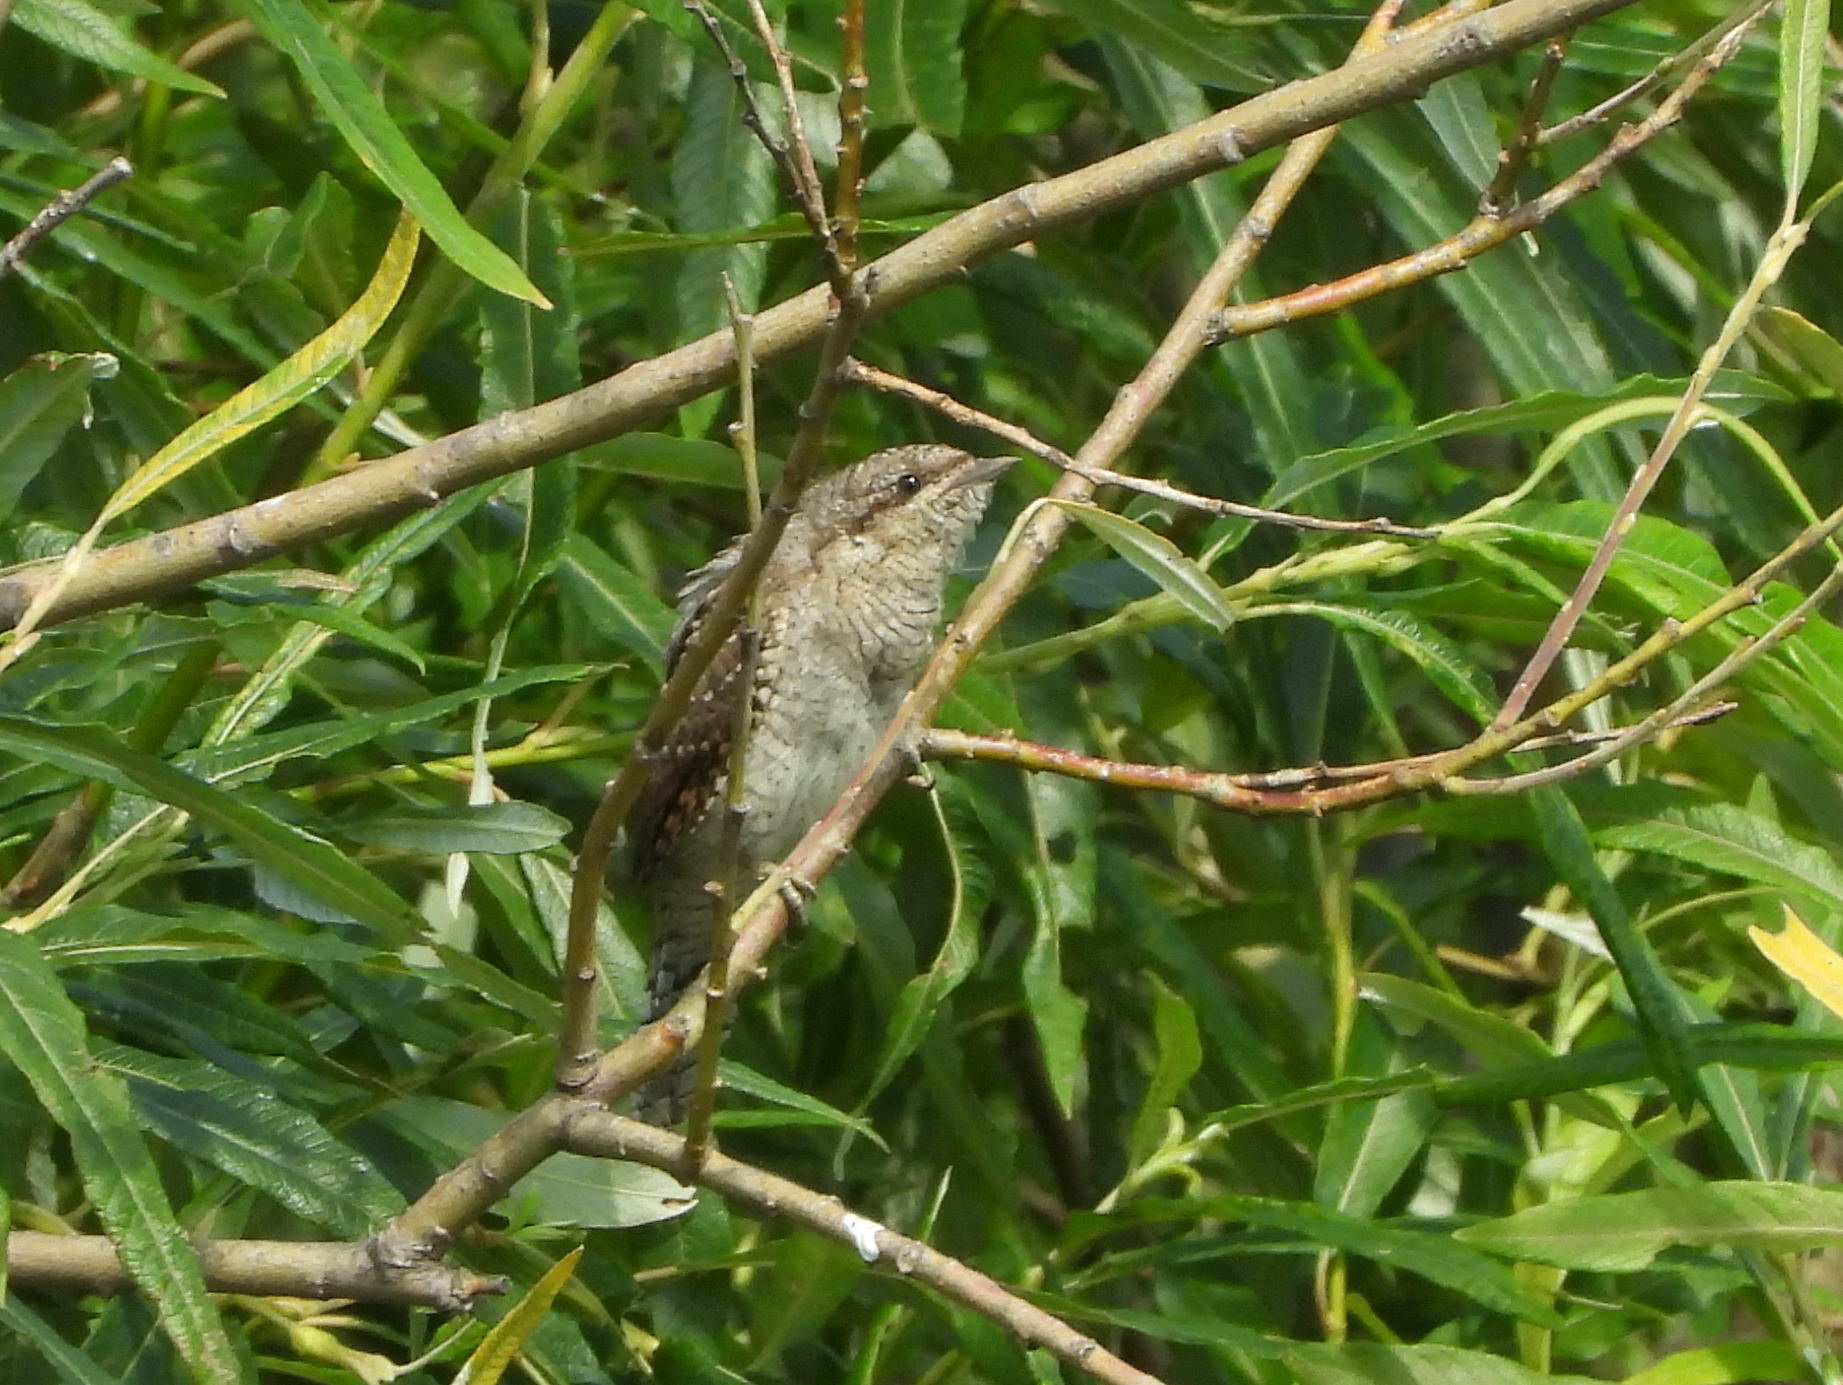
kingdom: Animalia
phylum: Chordata
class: Aves
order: Piciformes
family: Picidae
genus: Jynx
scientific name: Jynx torquilla
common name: Eurasian wryneck
